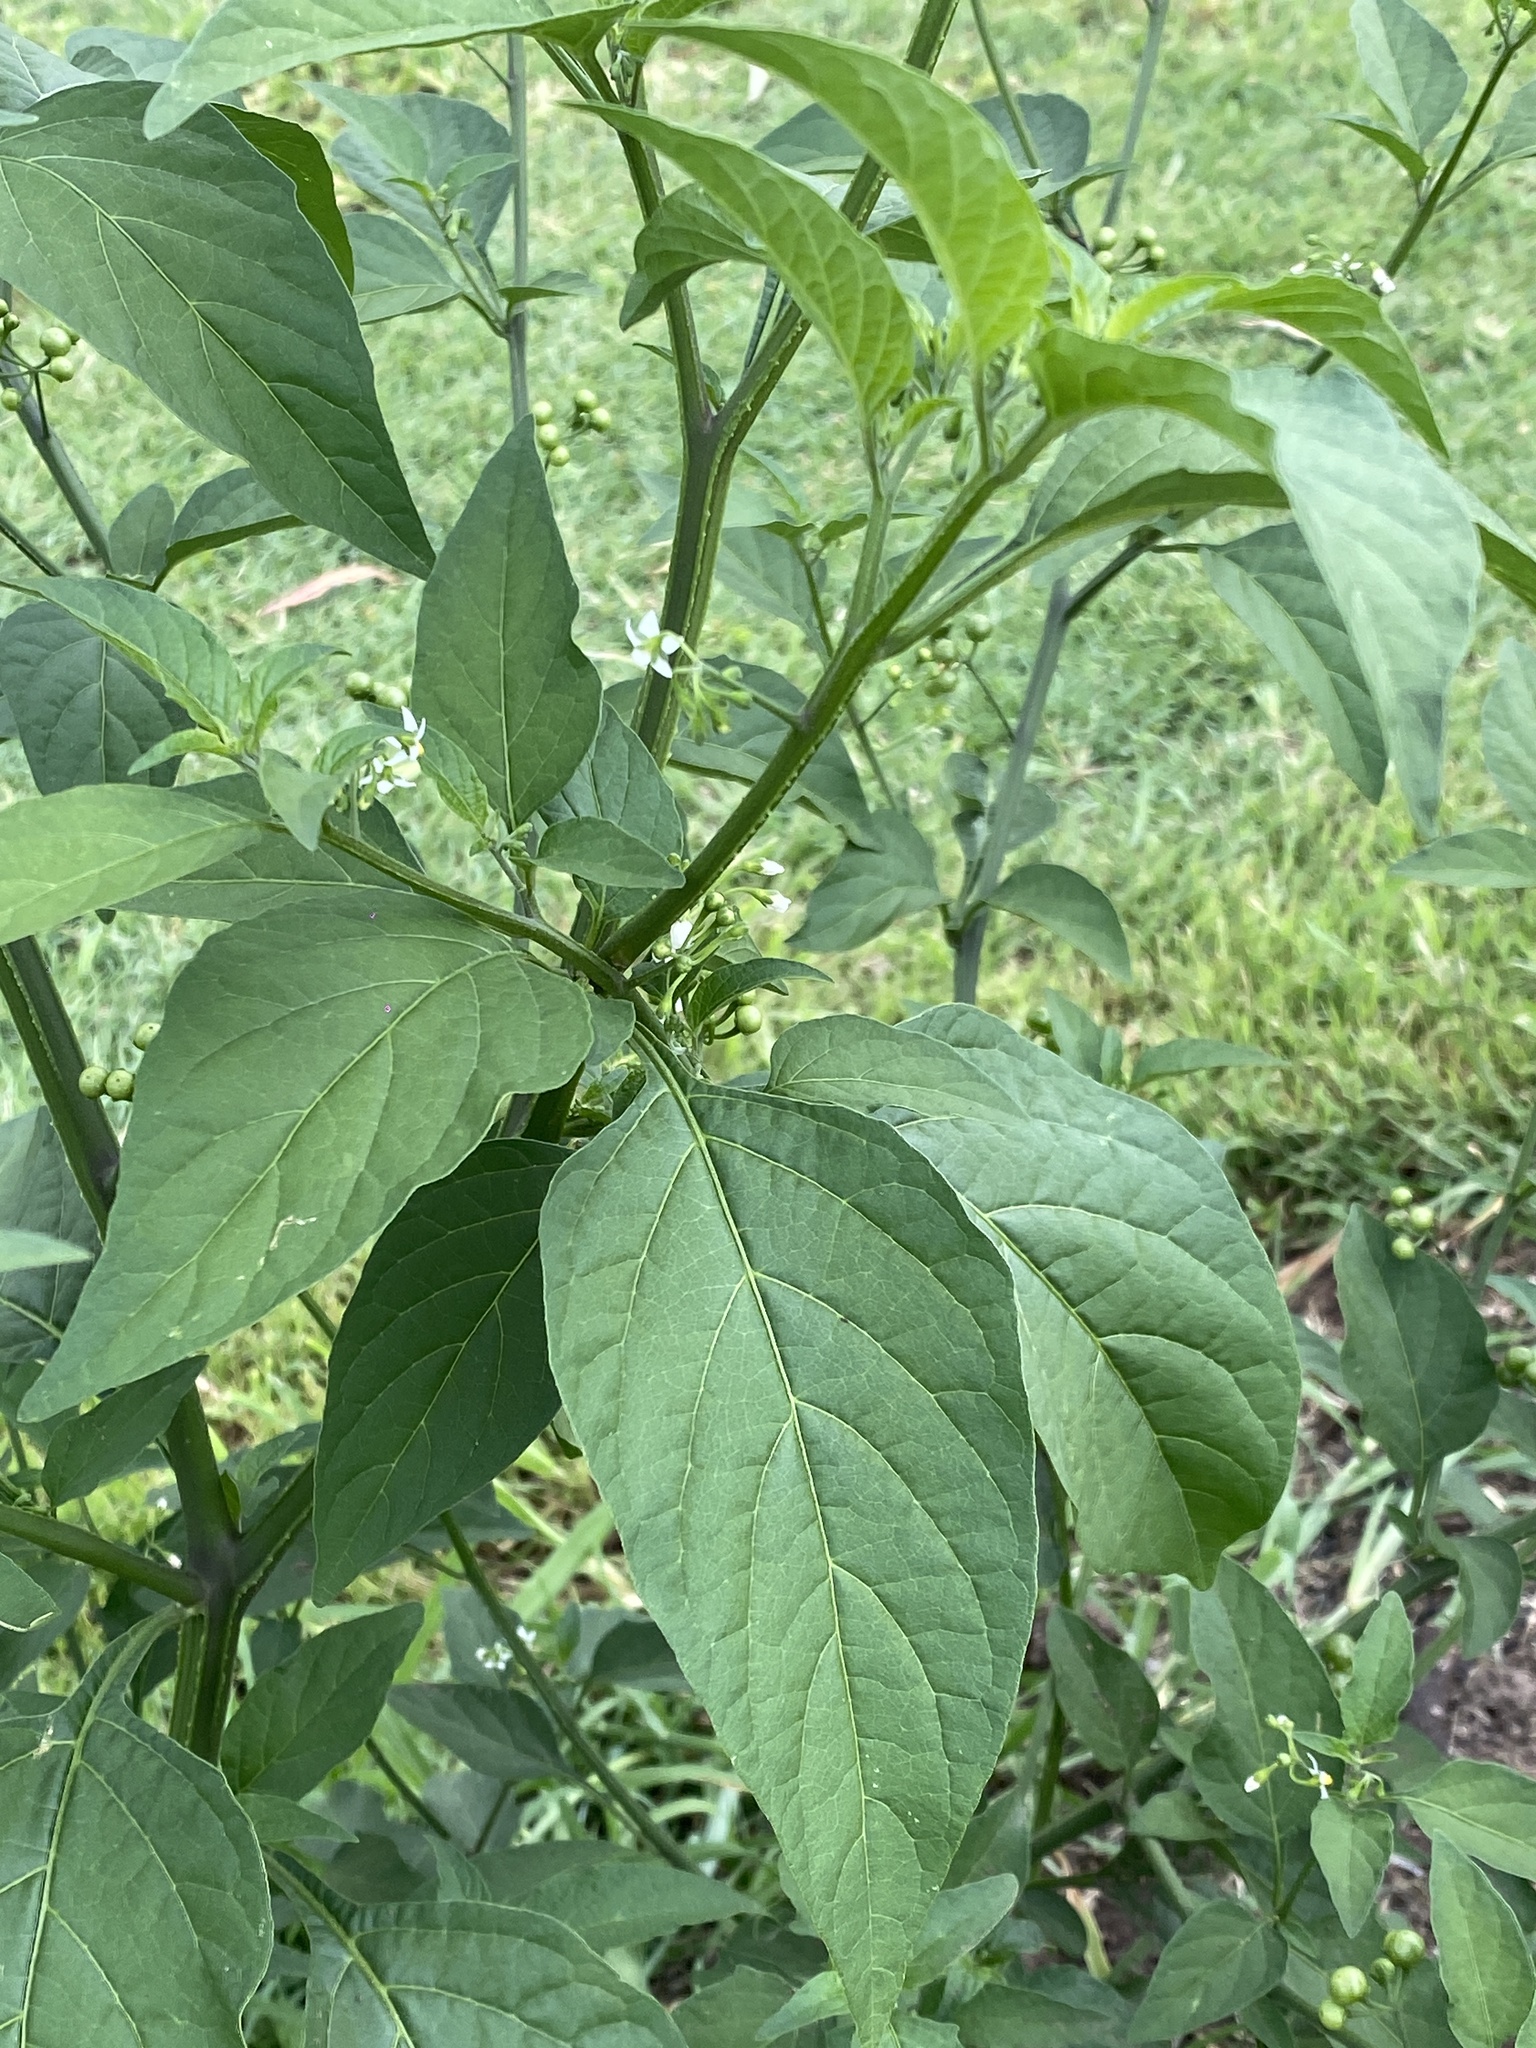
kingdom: Plantae
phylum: Tracheophyta
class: Magnoliopsida
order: Solanales
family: Solanaceae
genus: Solanum
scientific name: Solanum americanum
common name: American black nightshade
